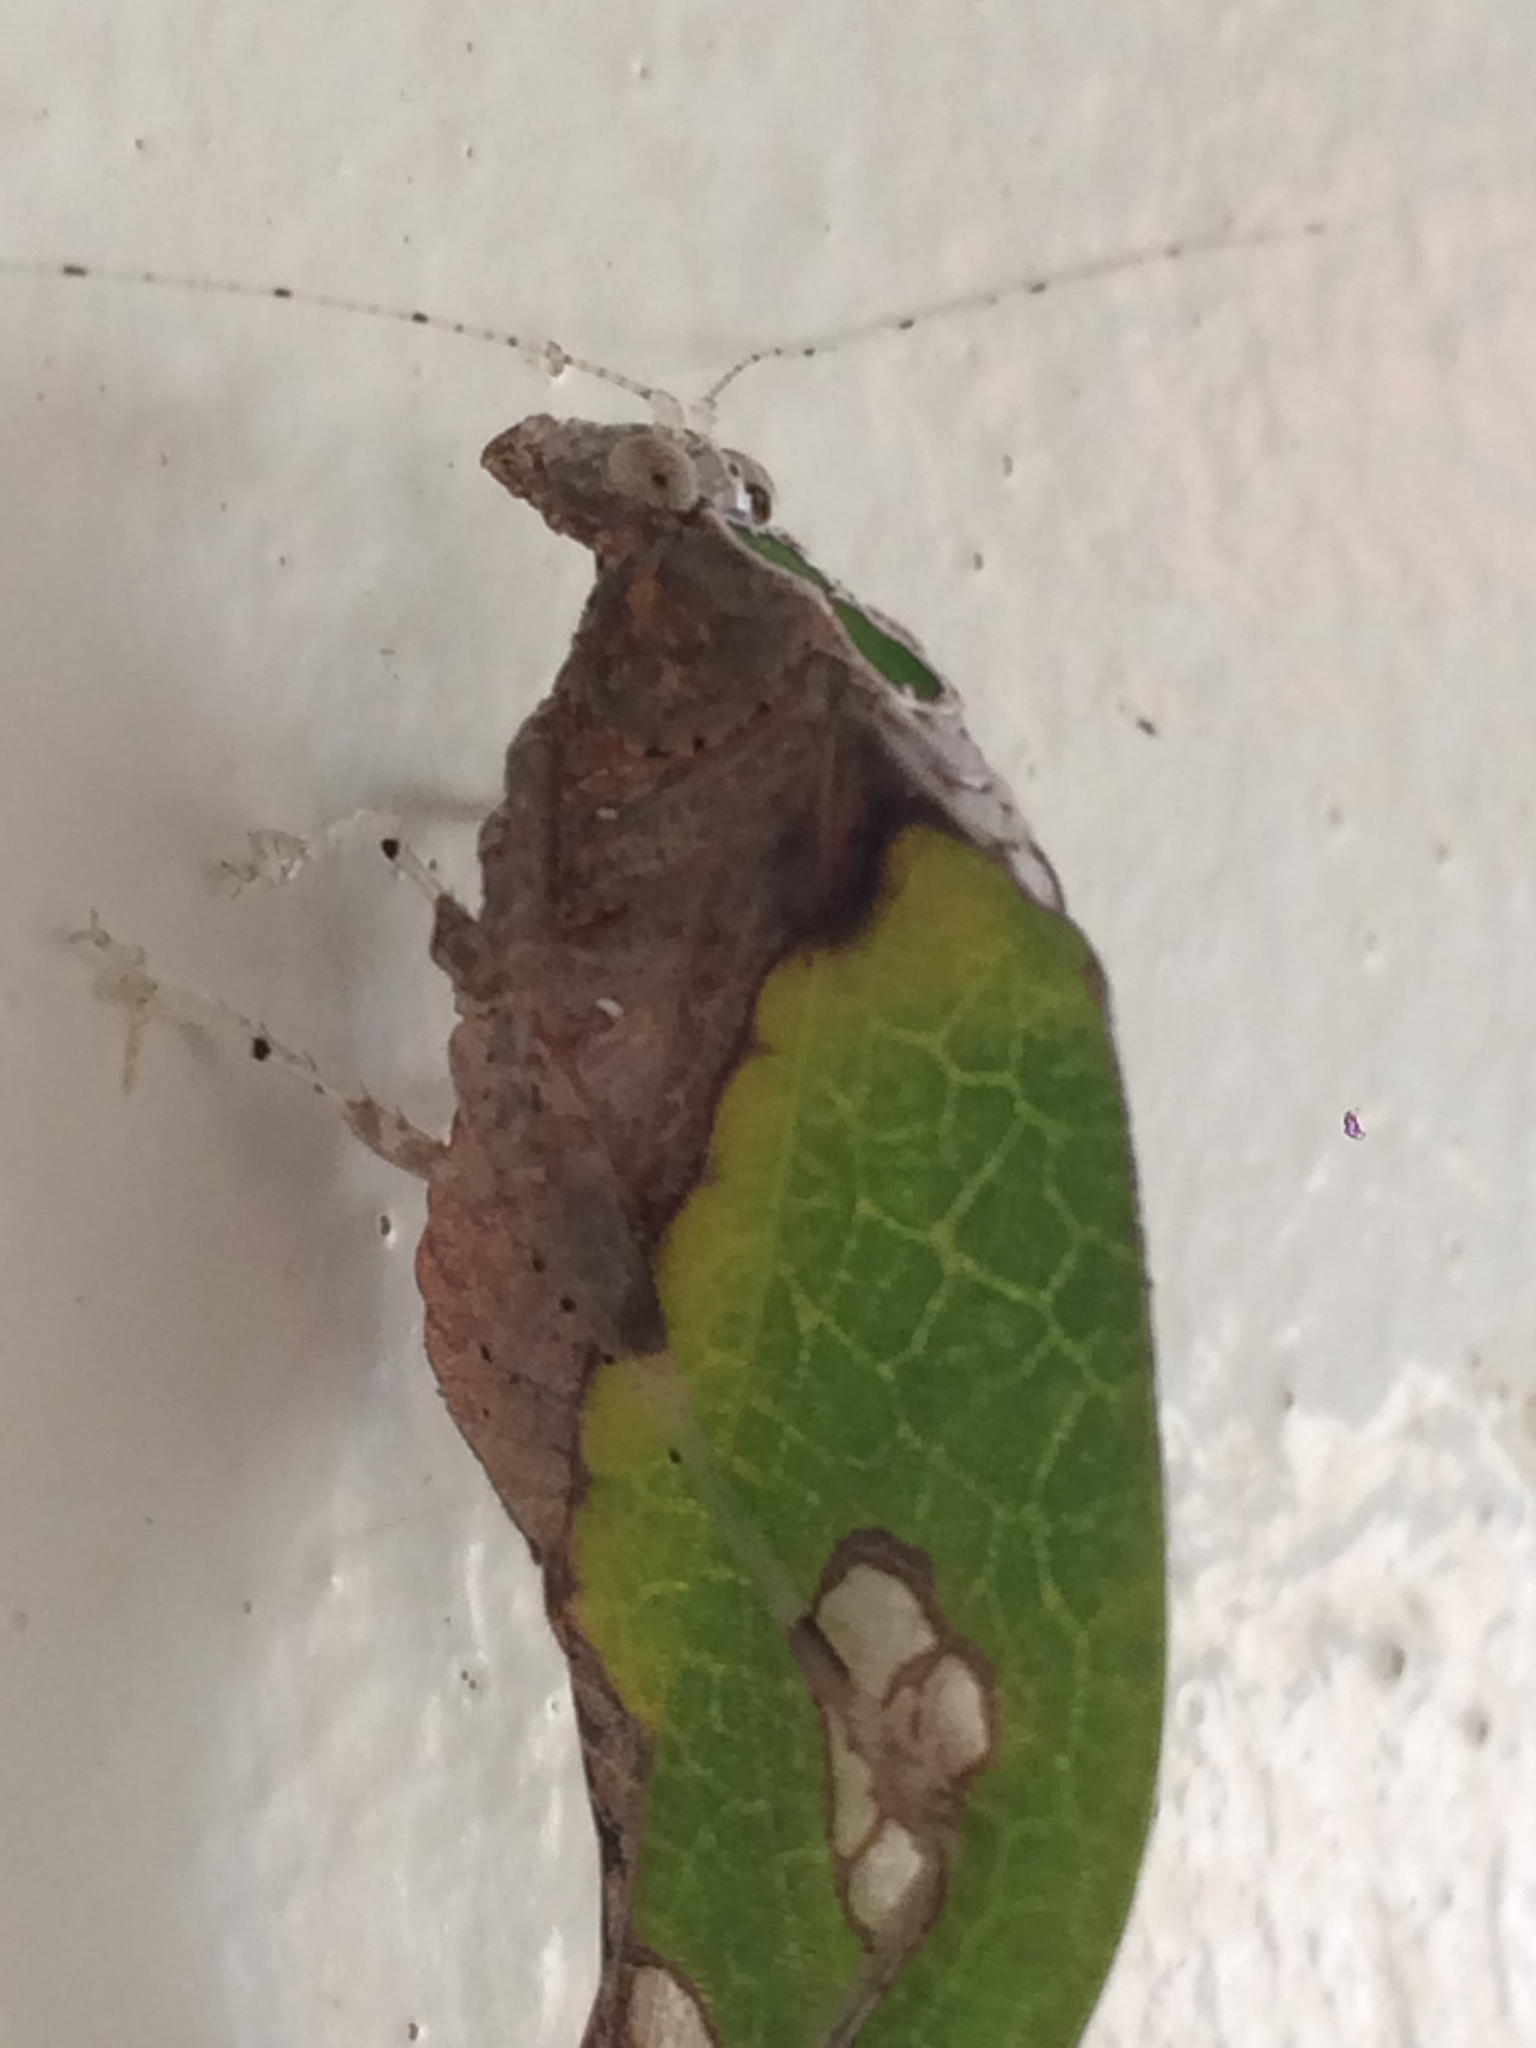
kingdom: Animalia
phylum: Arthropoda
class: Insecta
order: Orthoptera
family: Tettigoniidae
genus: Pycnopalpa
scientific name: Pycnopalpa bicordata
